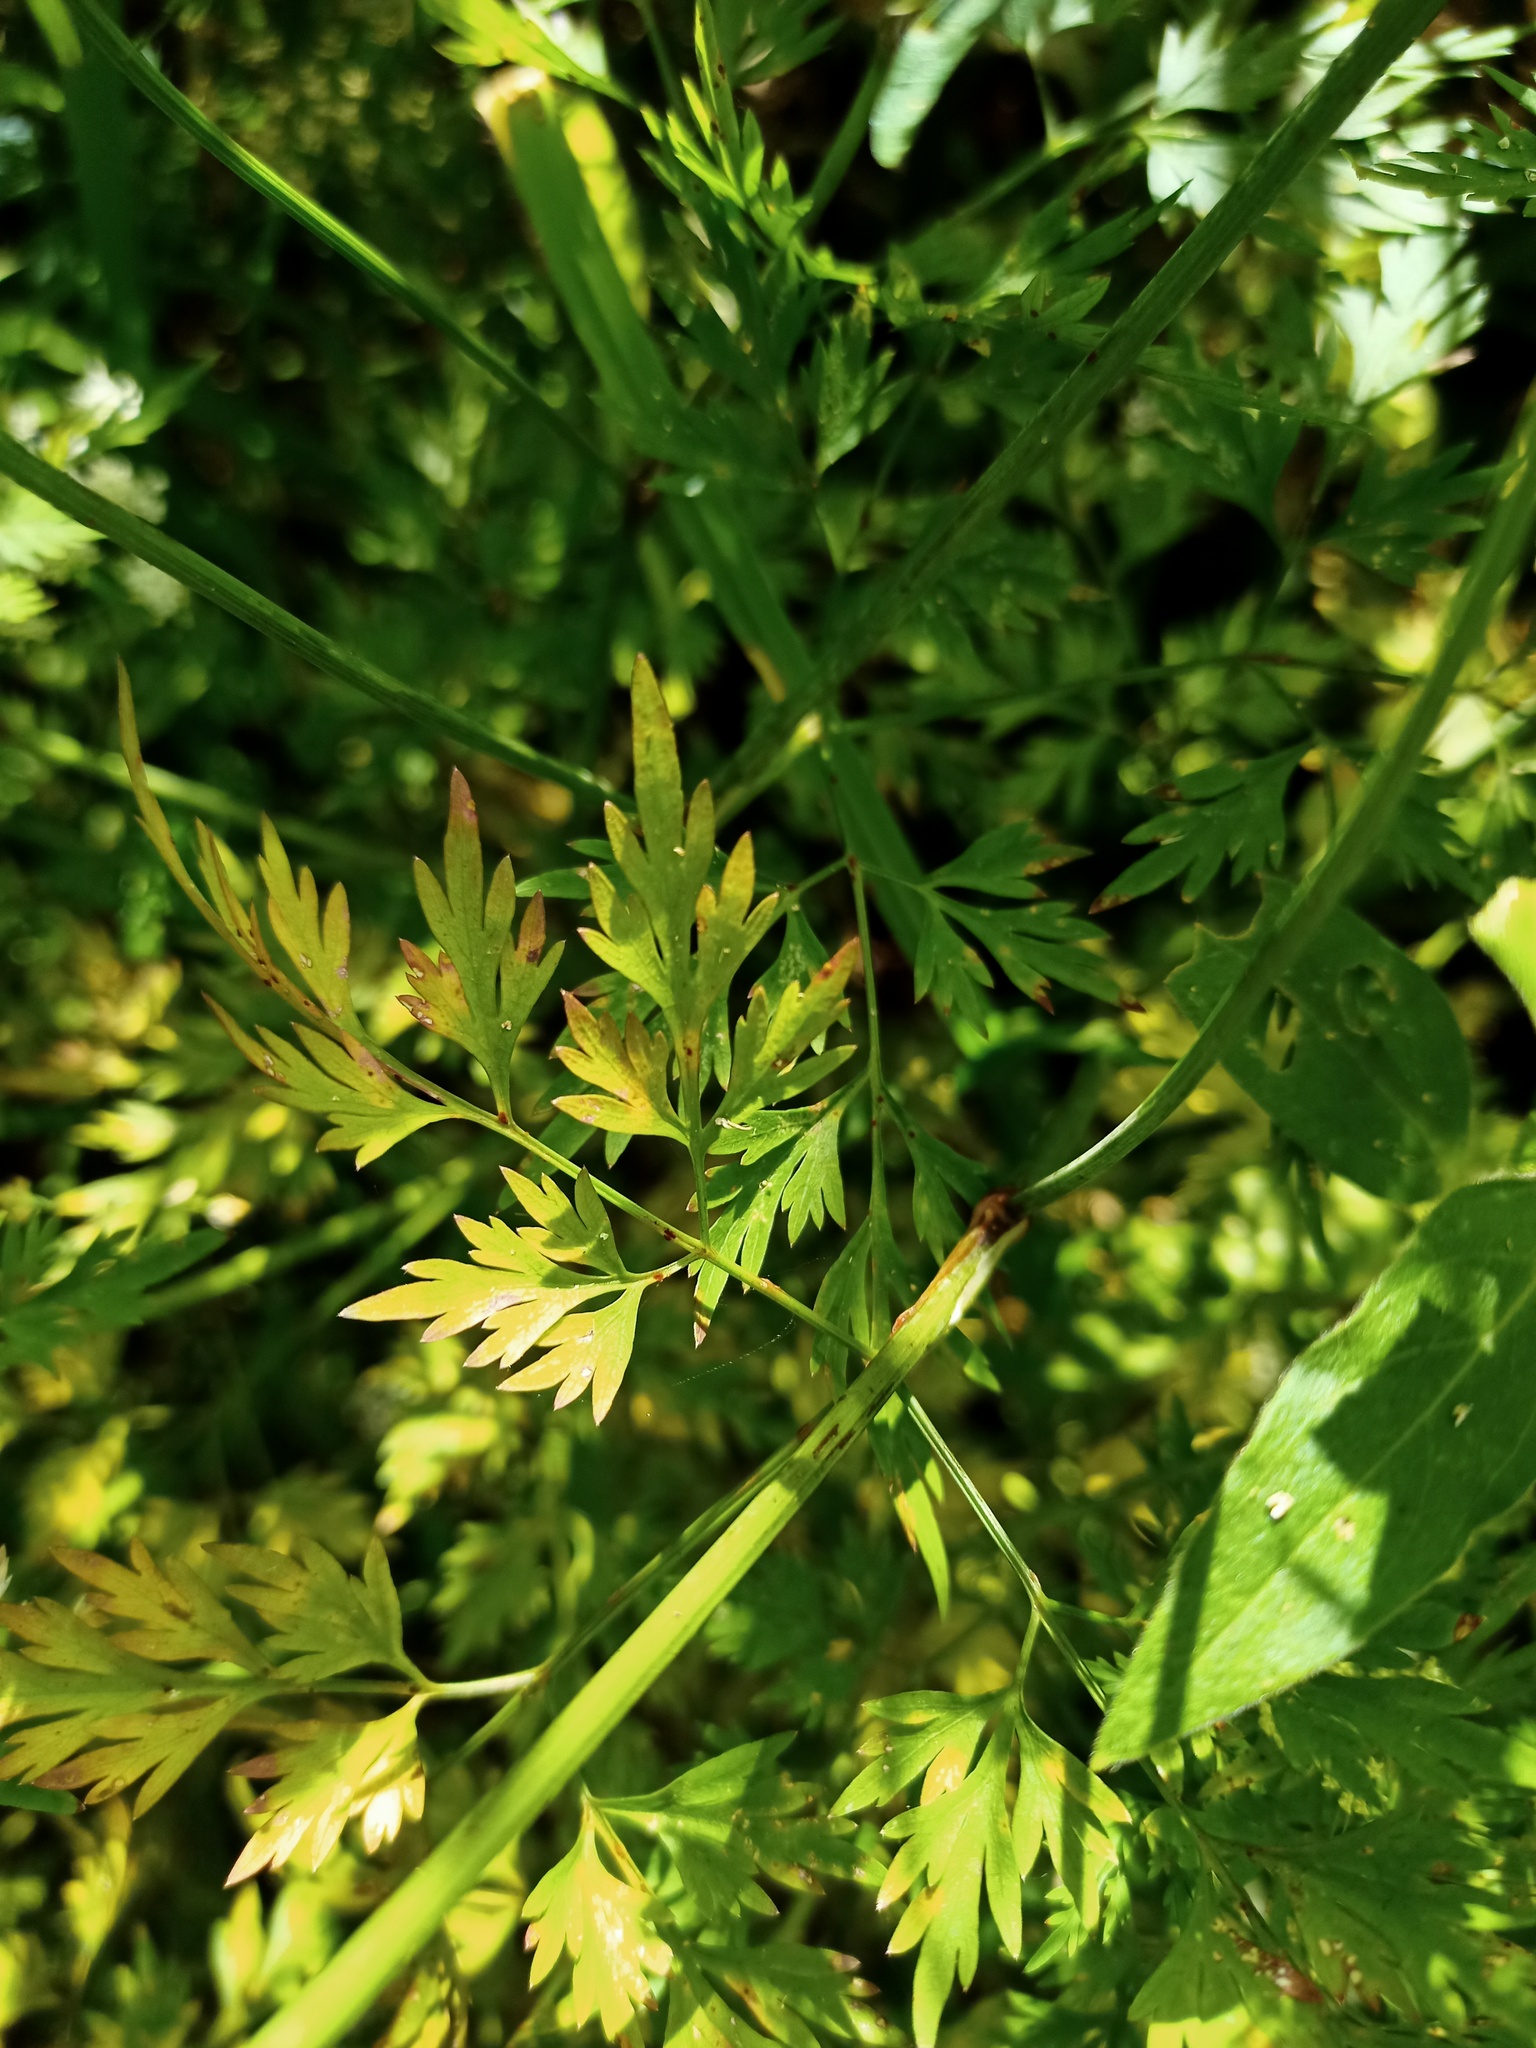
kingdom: Plantae
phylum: Tracheophyta
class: Magnoliopsida
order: Apiales
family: Apiaceae
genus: Aethusa
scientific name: Aethusa cynapium
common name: Fool's parsley
